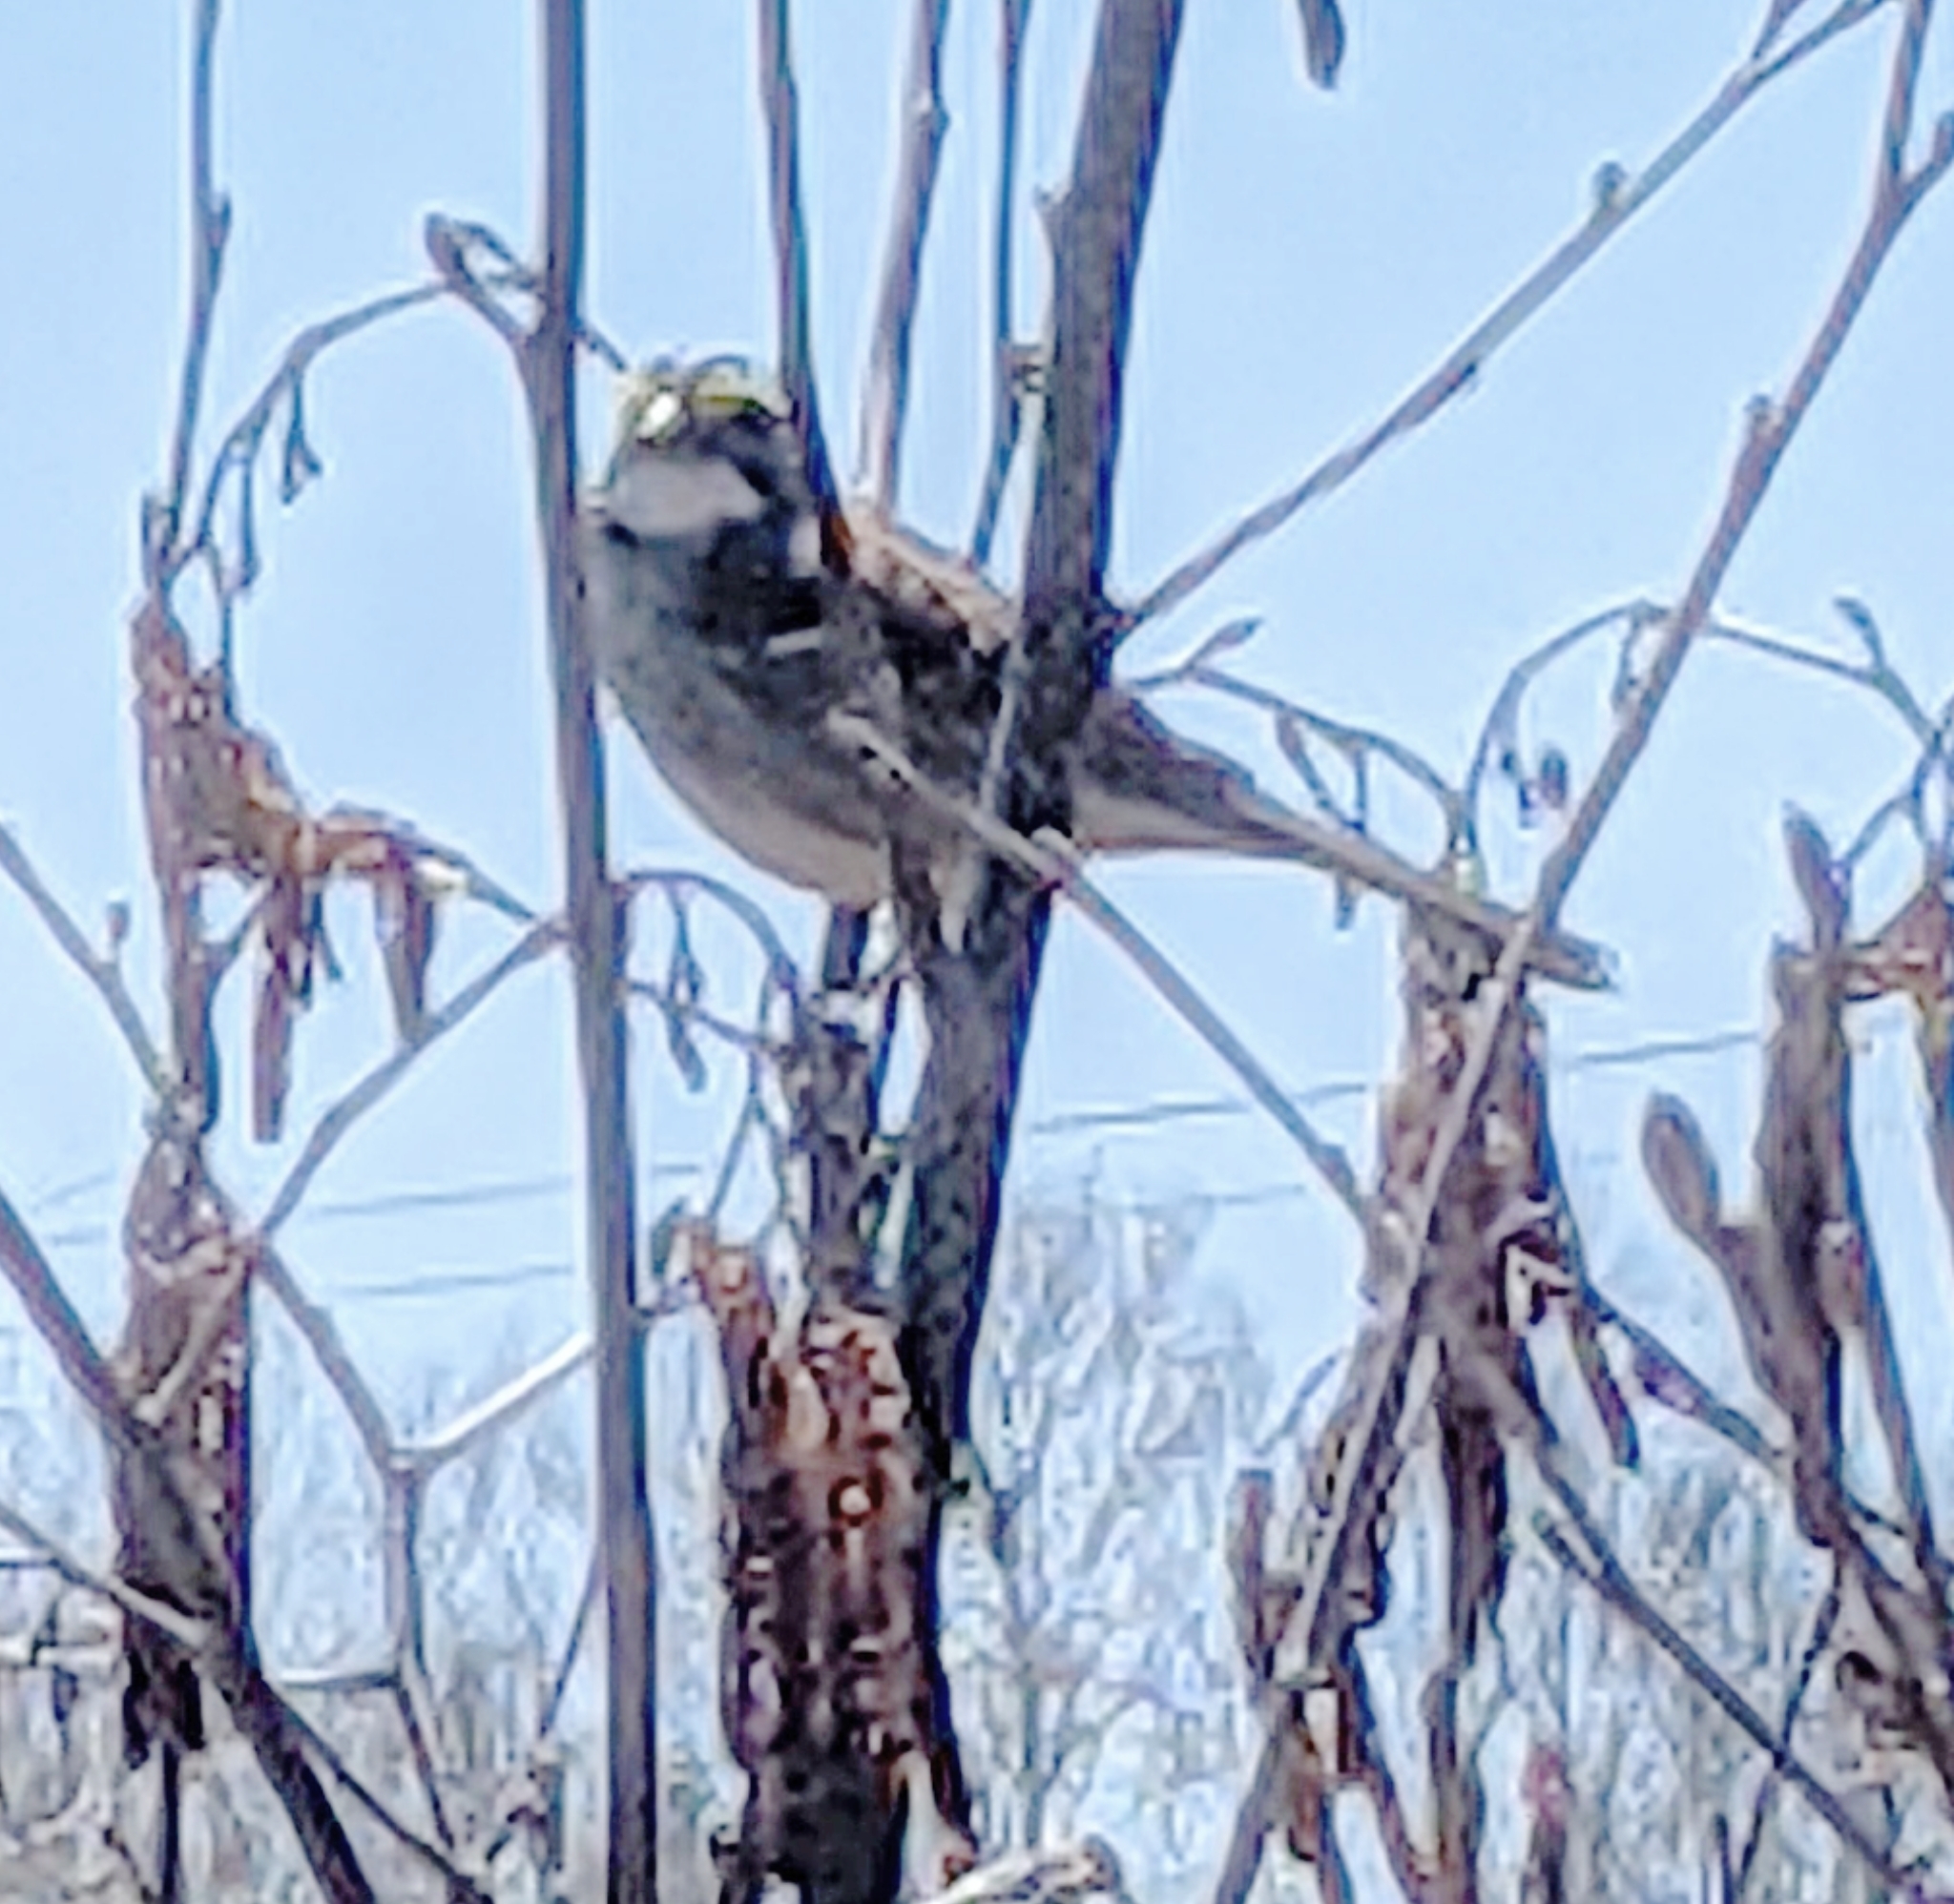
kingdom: Animalia
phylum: Chordata
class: Aves
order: Passeriformes
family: Passerellidae
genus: Zonotrichia
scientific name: Zonotrichia albicollis
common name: White-throated sparrow
